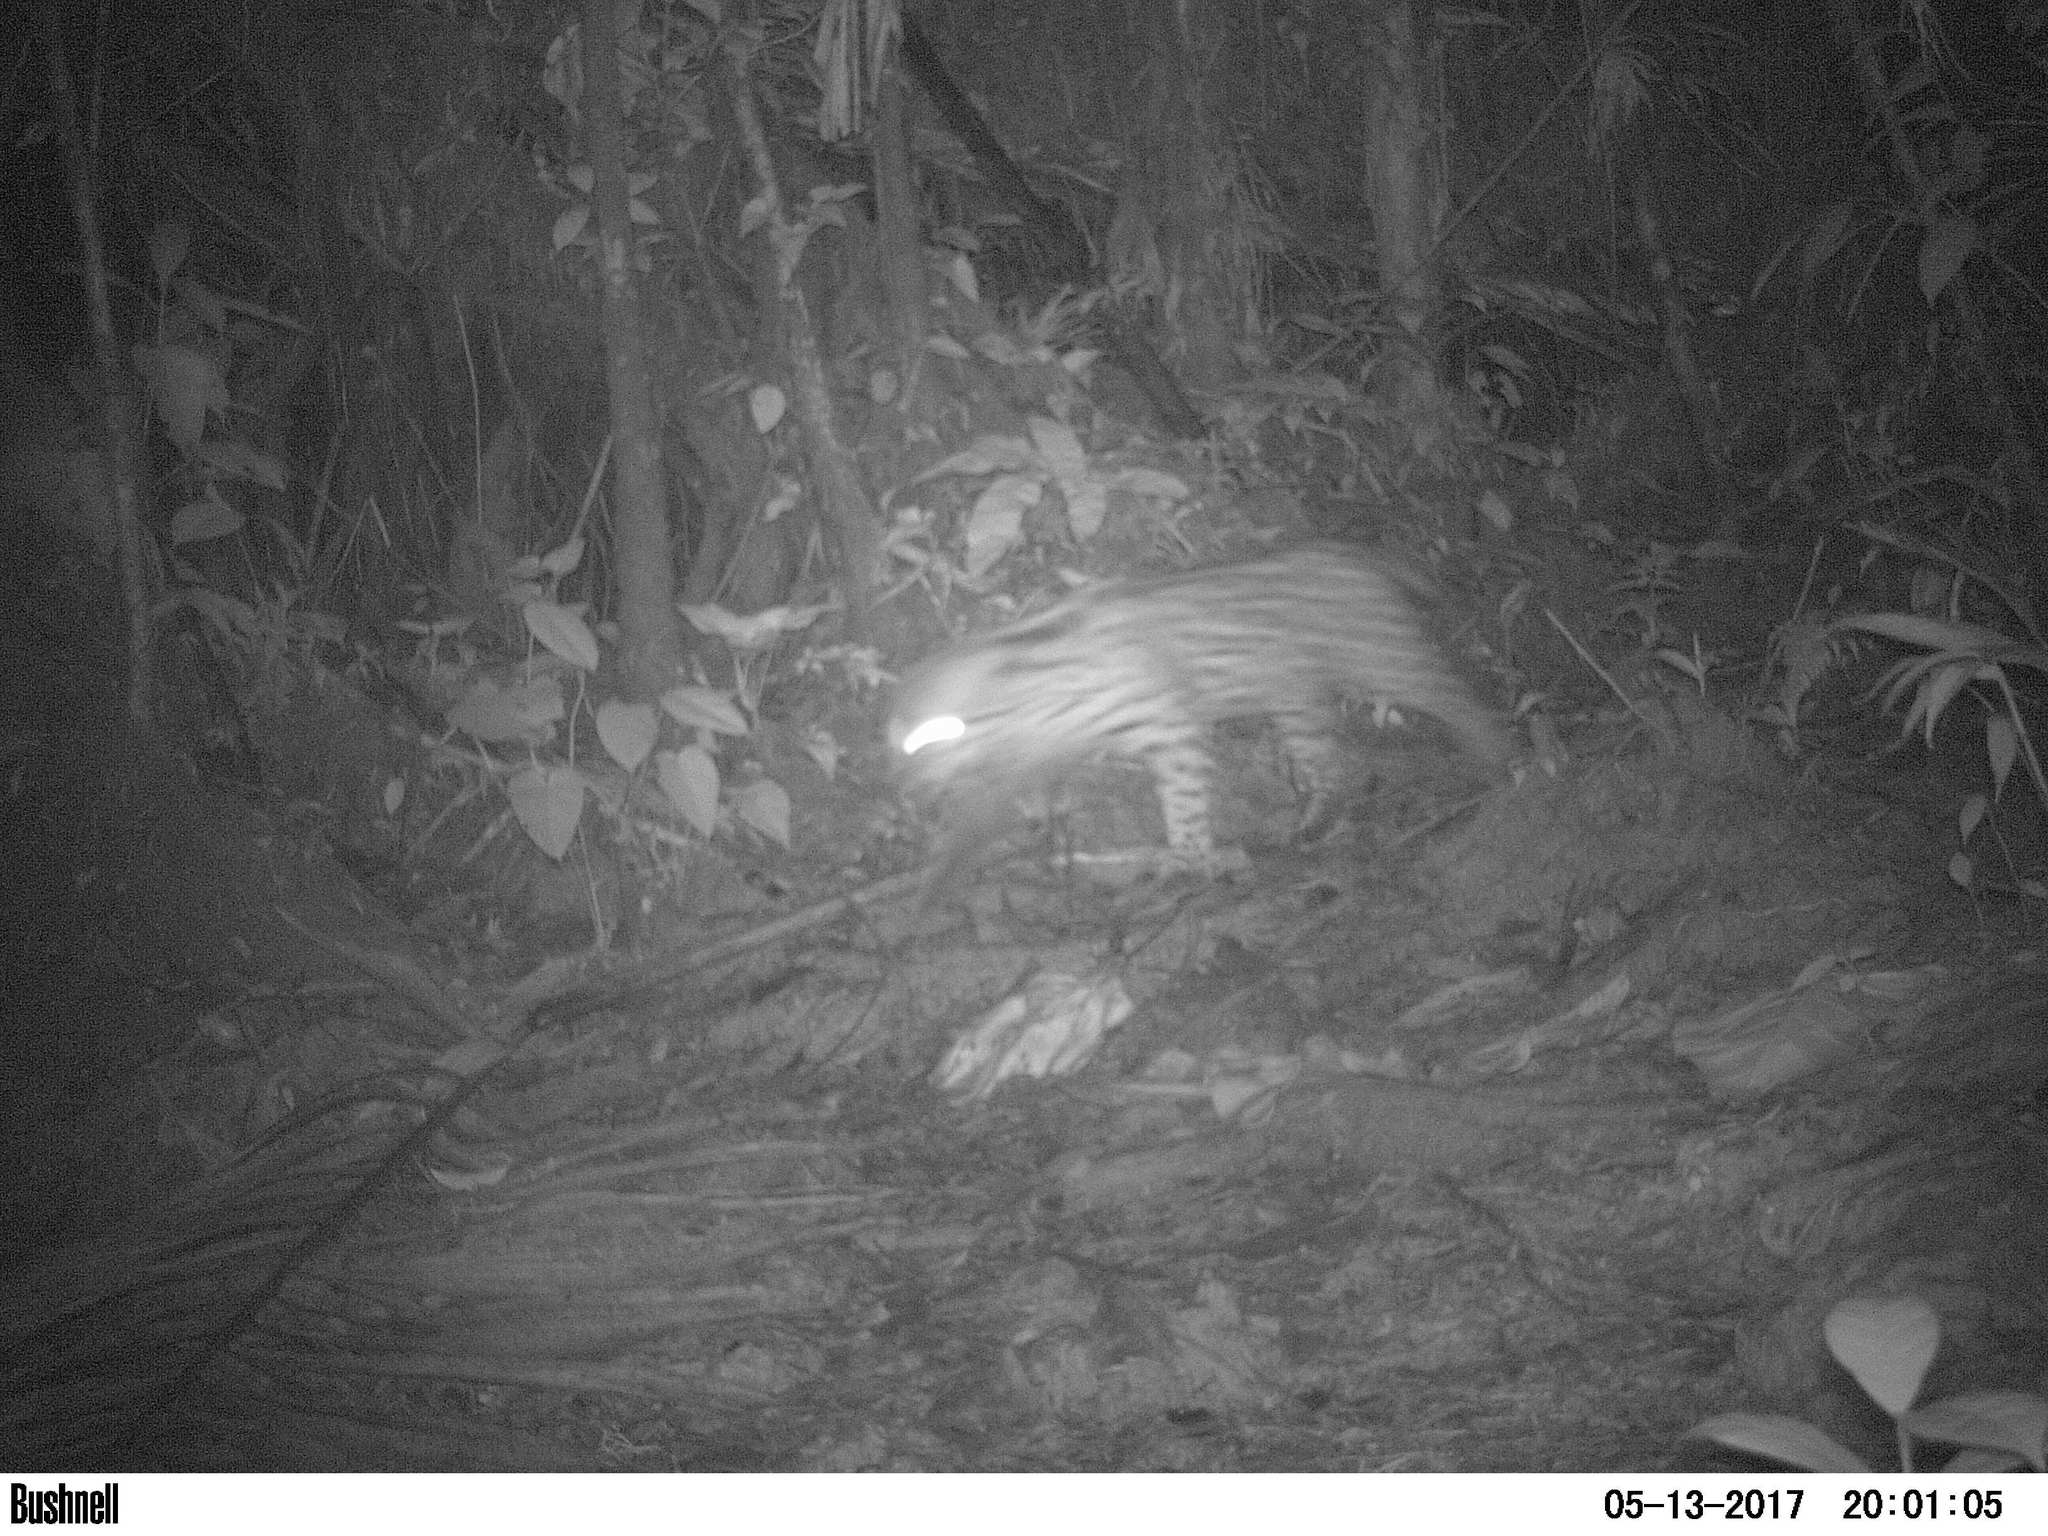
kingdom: Animalia
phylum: Chordata
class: Mammalia
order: Carnivora
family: Felidae
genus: Leopardus
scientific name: Leopardus pardalis
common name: Ocelot
